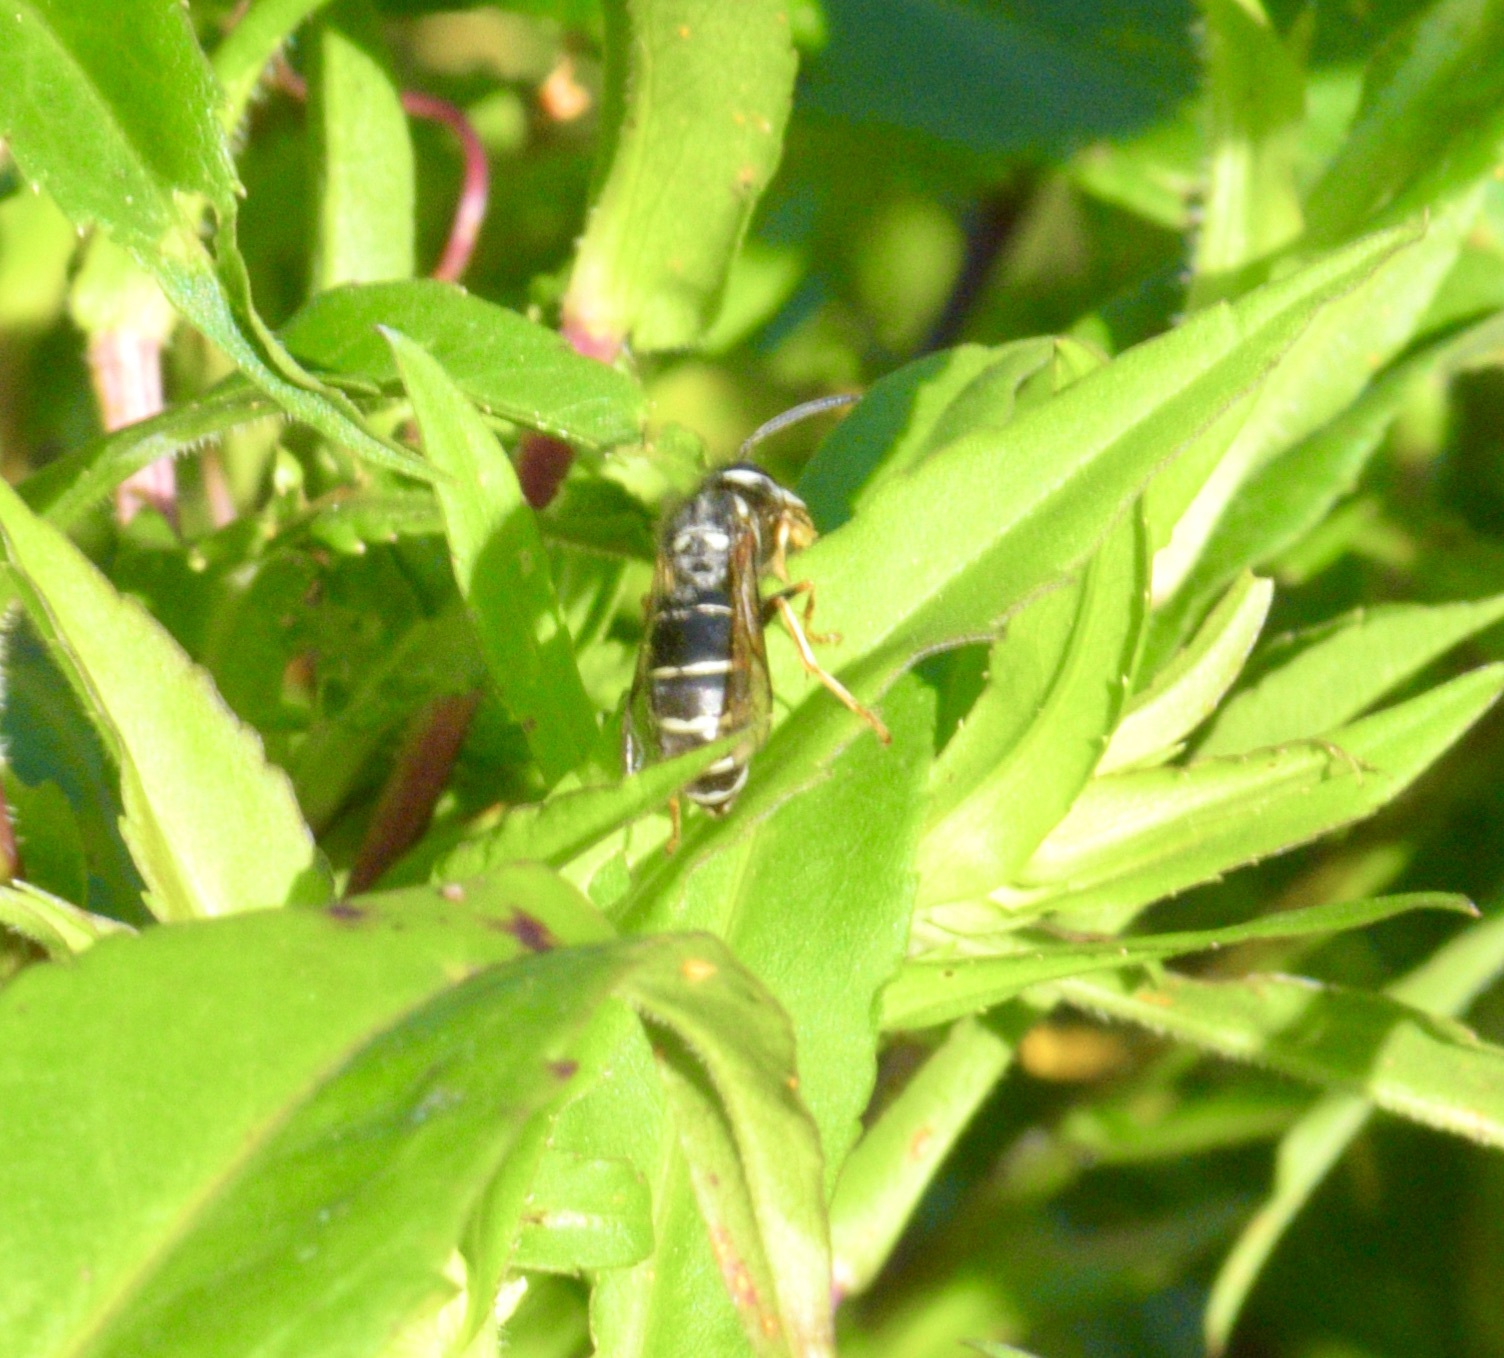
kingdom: Animalia
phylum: Arthropoda
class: Insecta
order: Hymenoptera
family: Vespidae
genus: Vespula
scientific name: Vespula consobrina
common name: Blackjacket
